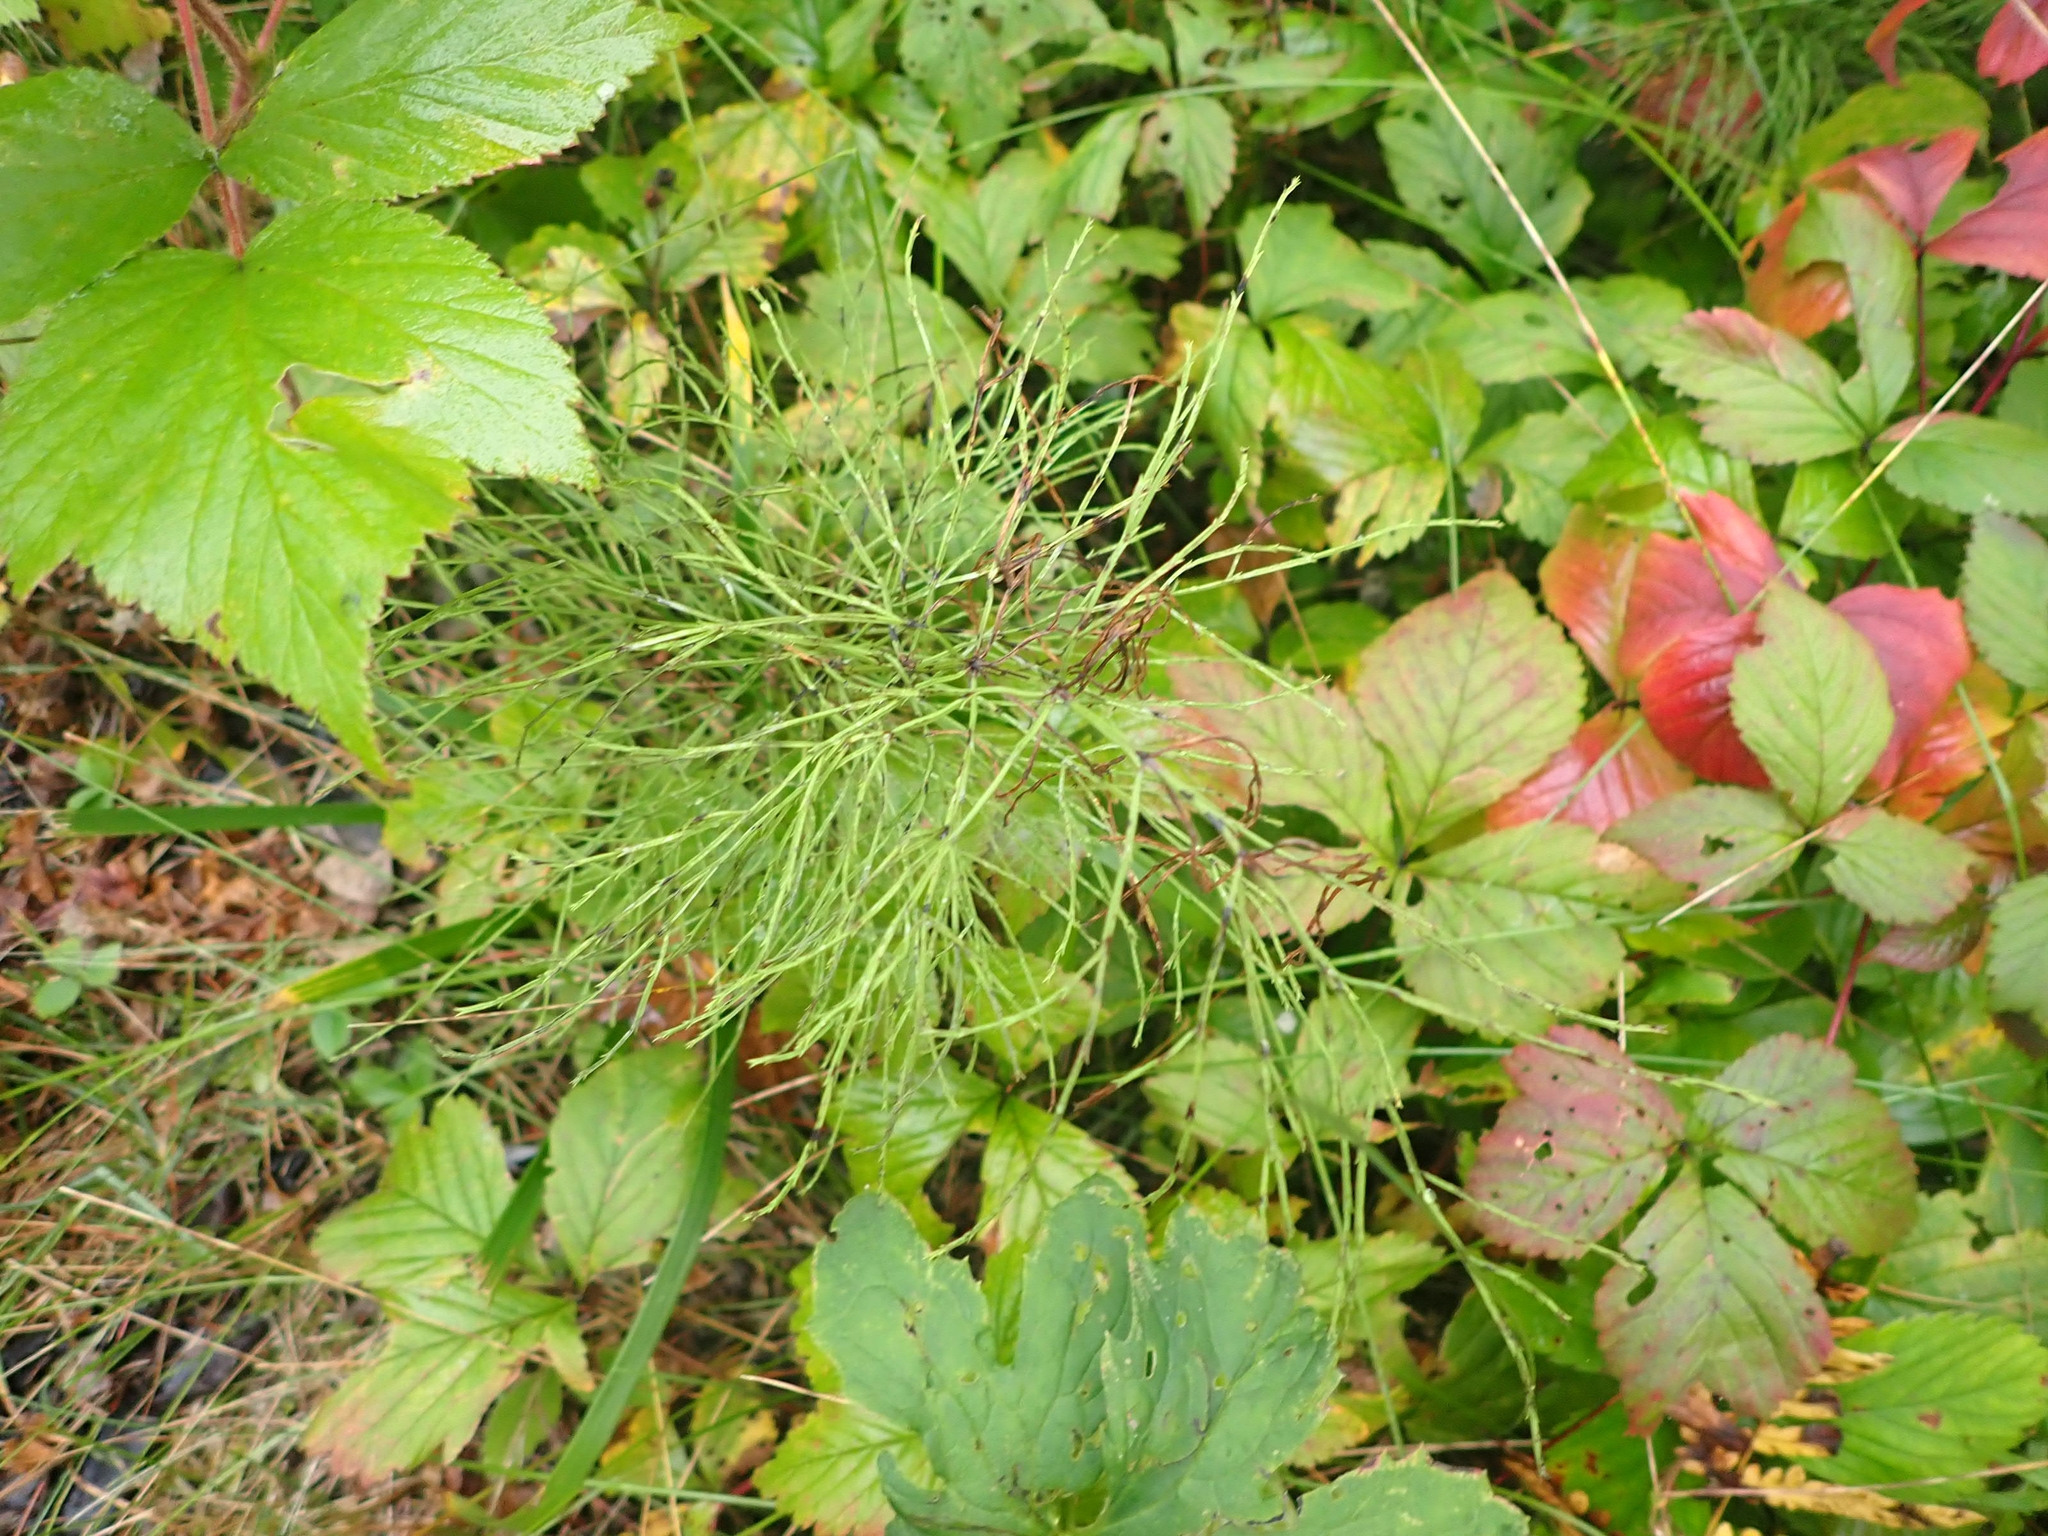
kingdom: Plantae
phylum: Tracheophyta
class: Polypodiopsida
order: Equisetales
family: Equisetaceae
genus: Equisetum
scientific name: Equisetum sylvaticum
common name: Wood horsetail
